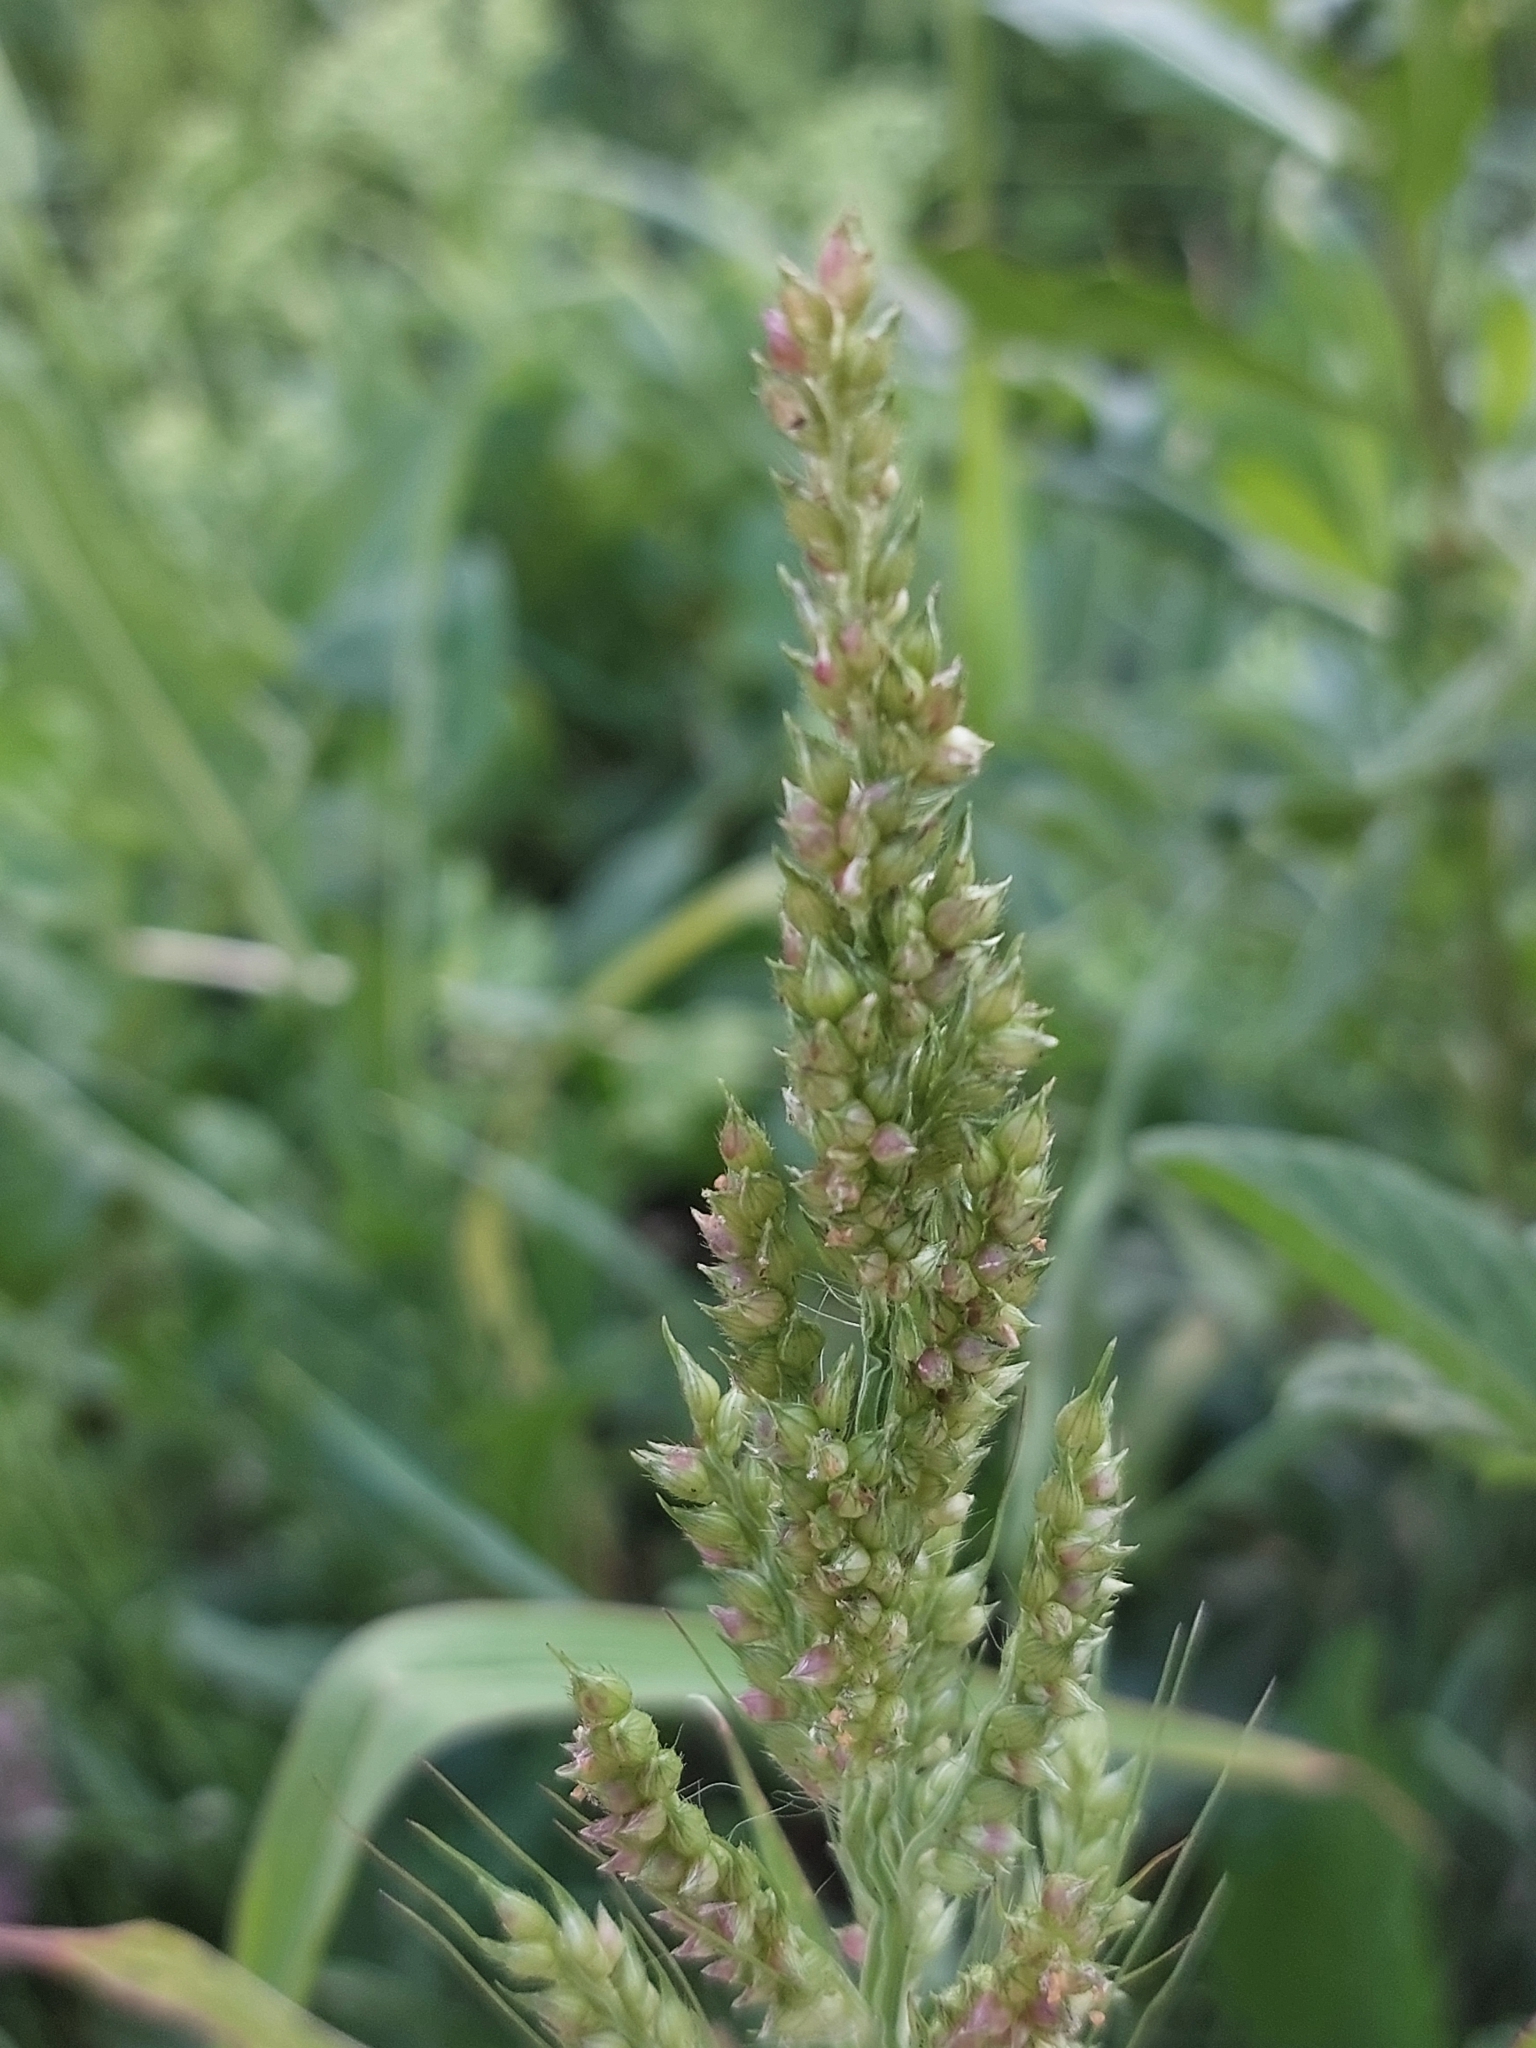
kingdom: Plantae
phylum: Tracheophyta
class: Liliopsida
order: Poales
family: Poaceae
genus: Echinochloa
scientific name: Echinochloa crus-galli
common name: Cockspur
